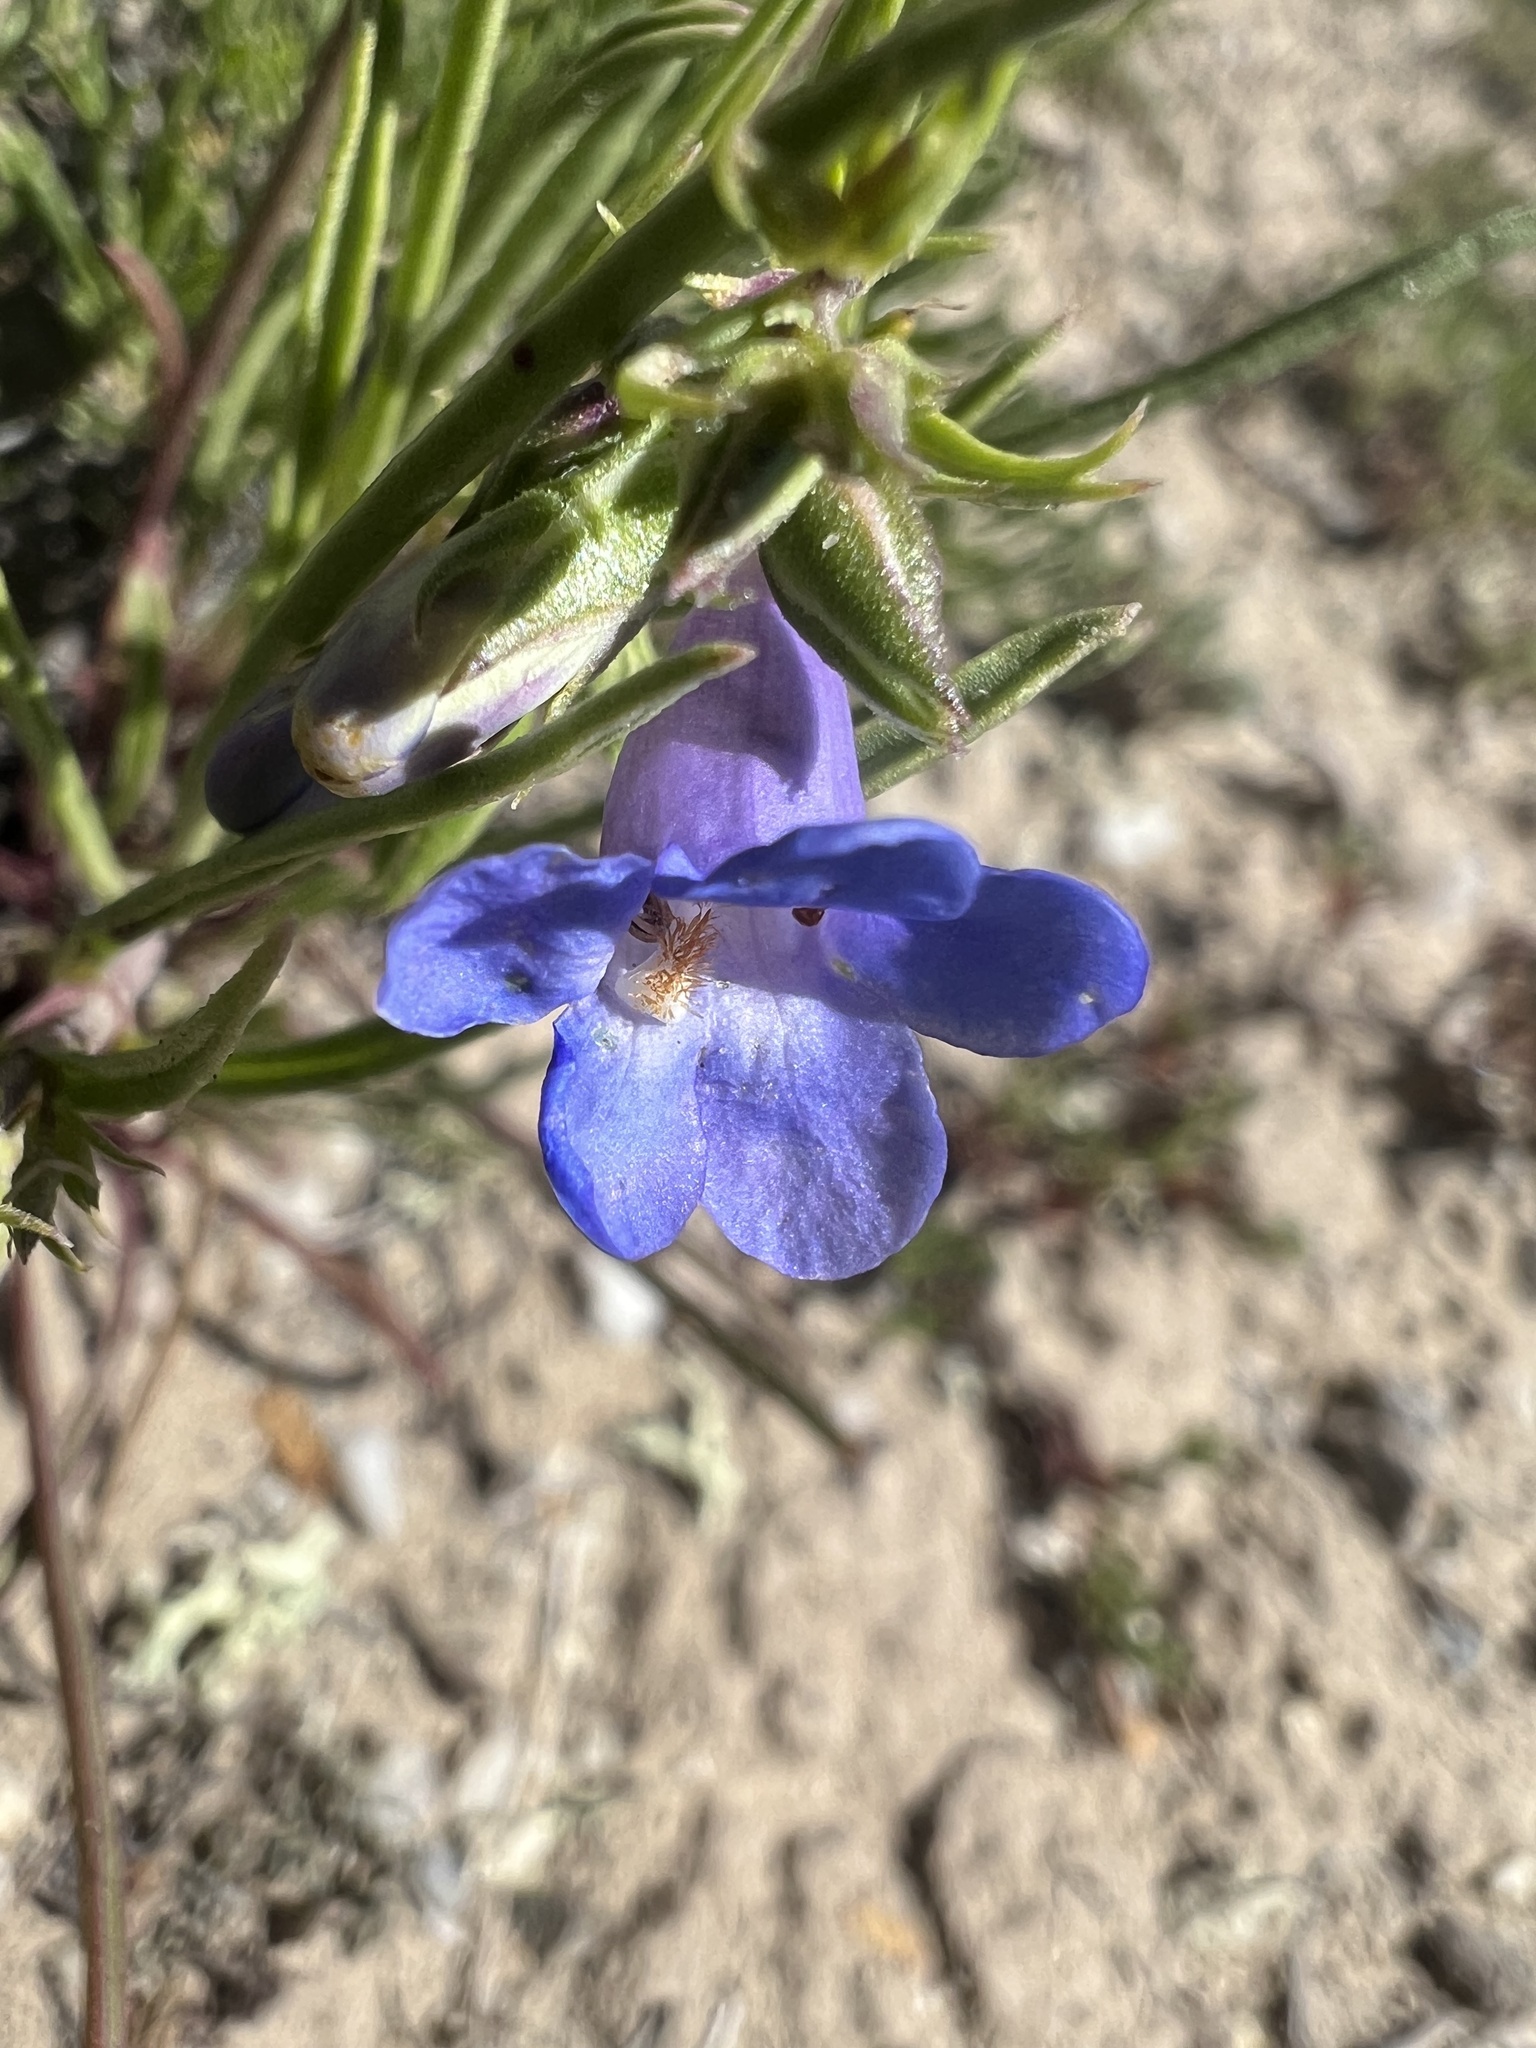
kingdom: Plantae
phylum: Tracheophyta
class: Magnoliopsida
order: Lamiales
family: Plantaginaceae
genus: Penstemon
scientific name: Penstemon penlandii
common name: Penland's beardtongue
